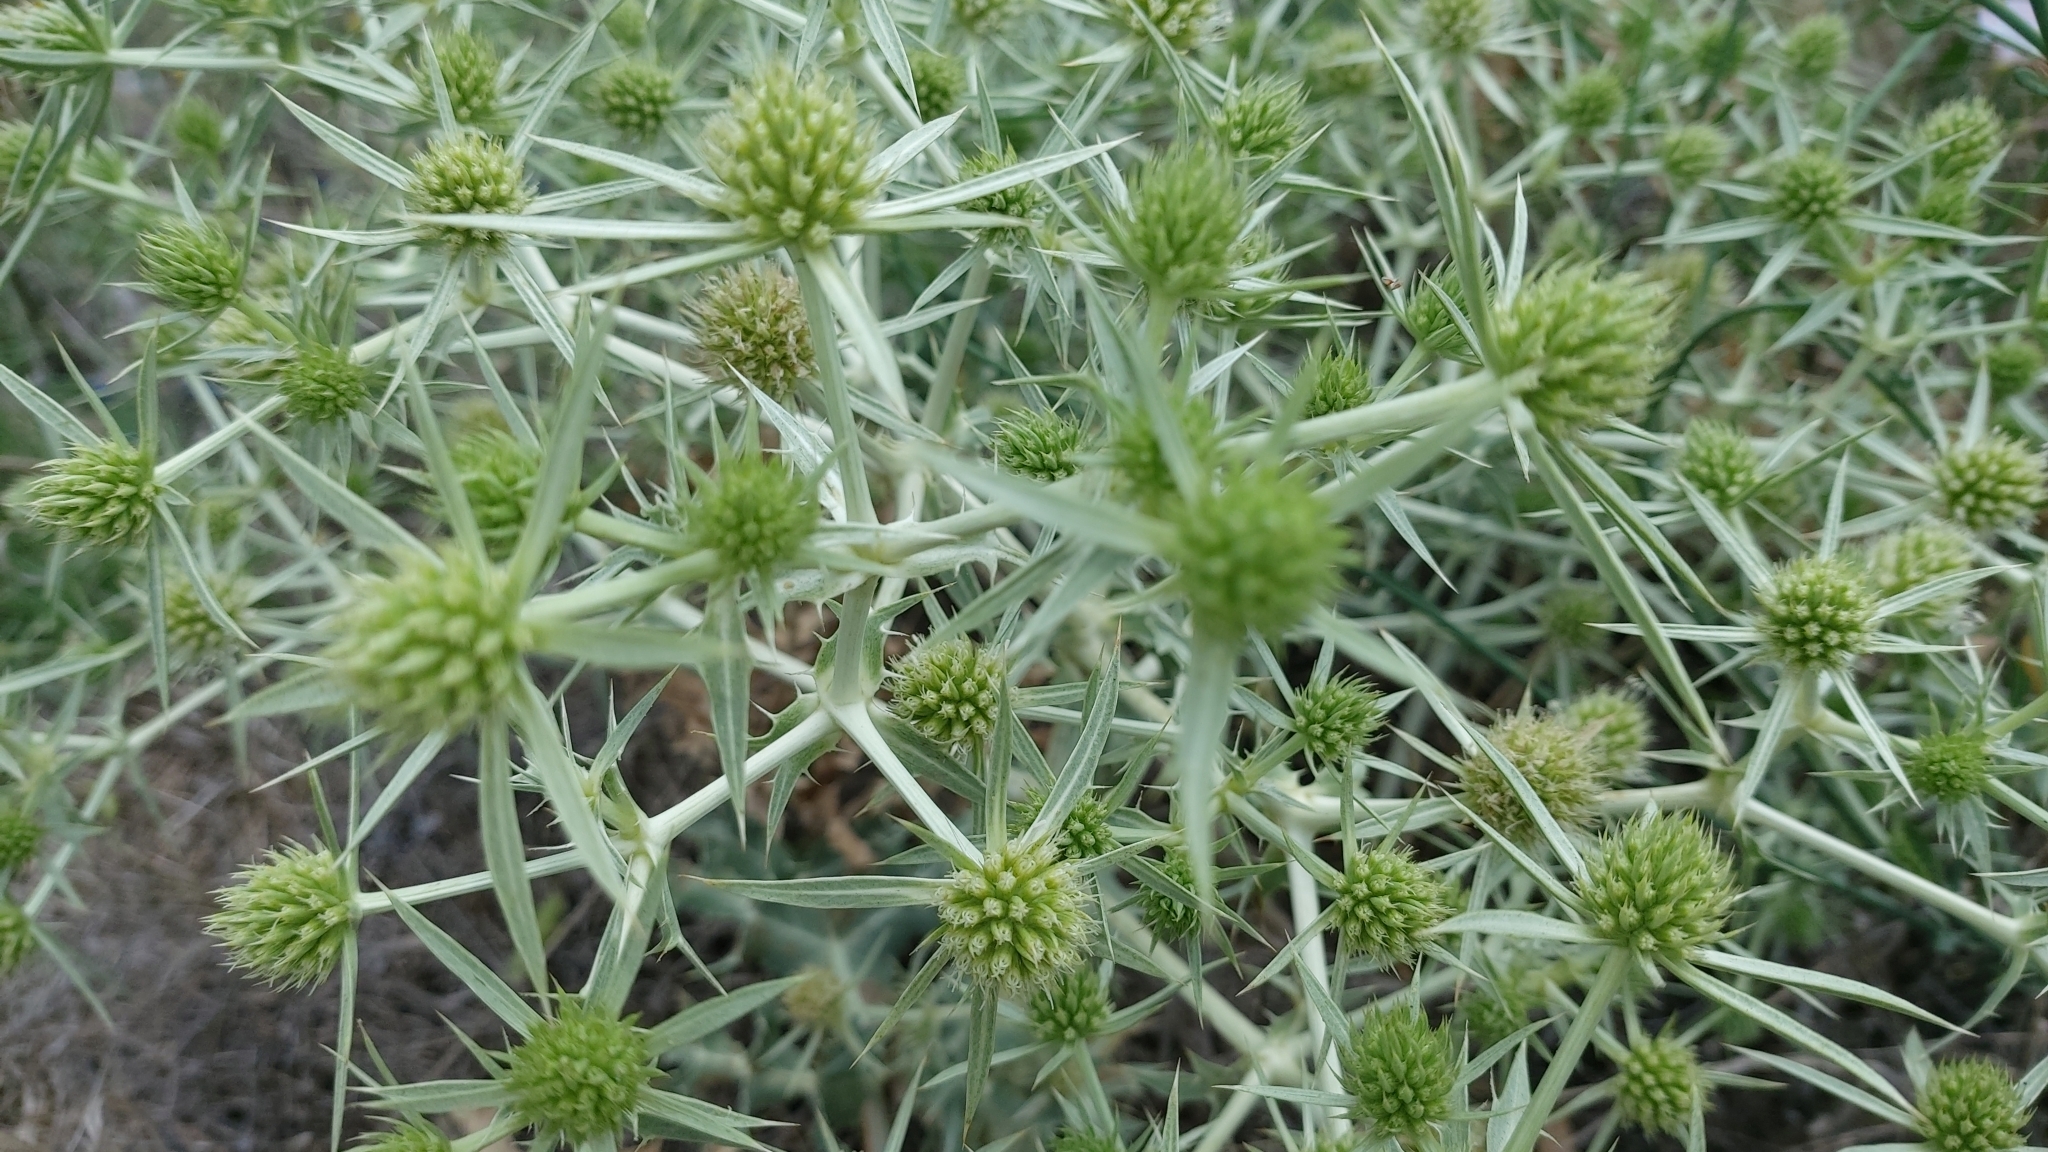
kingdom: Plantae
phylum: Tracheophyta
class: Magnoliopsida
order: Apiales
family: Apiaceae
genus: Eryngium
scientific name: Eryngium campestre
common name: Field eryngo
